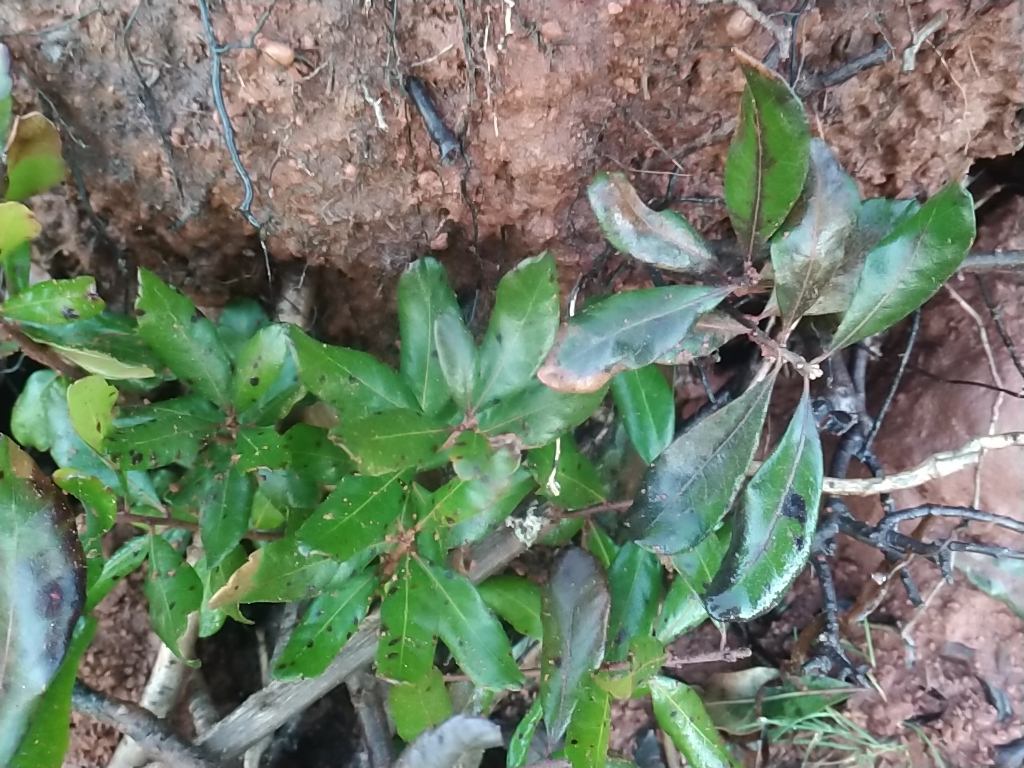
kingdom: Plantae
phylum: Tracheophyta
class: Magnoliopsida
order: Fagales
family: Myricaceae
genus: Morella
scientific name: Morella pensylvanica
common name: Northern bayberry
